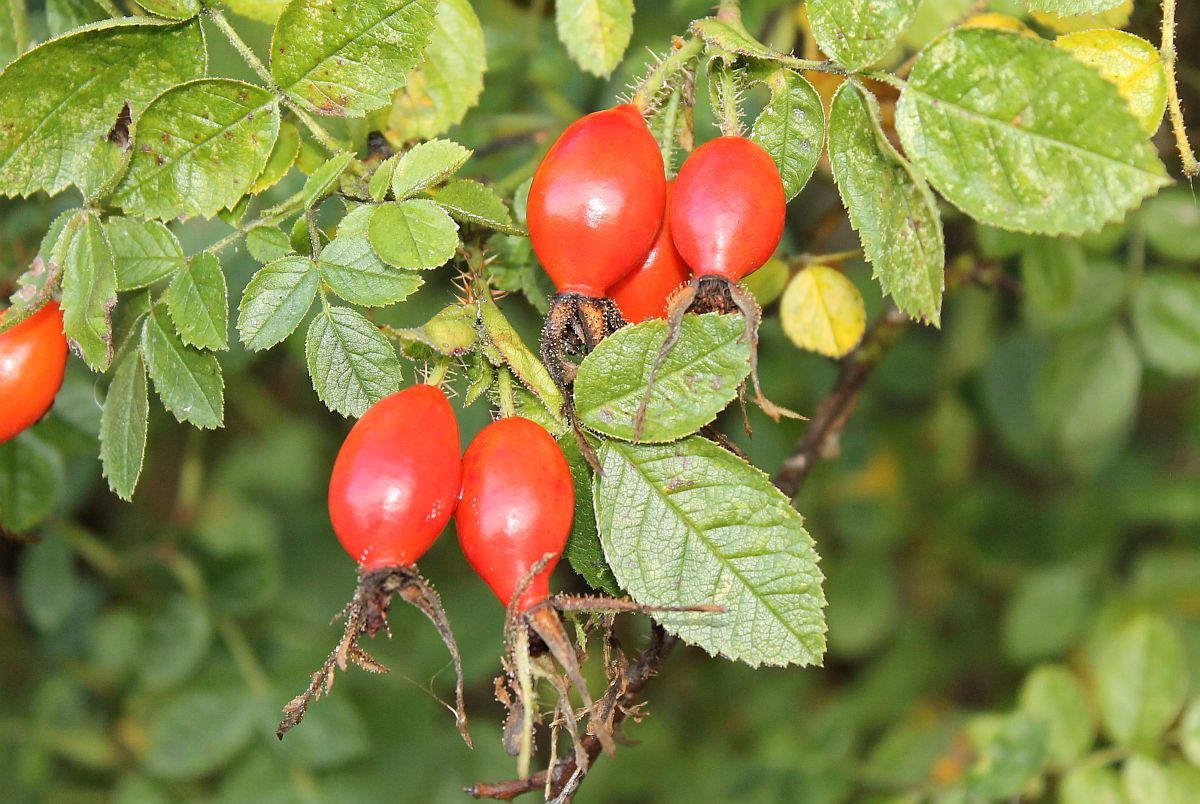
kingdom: Plantae
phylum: Tracheophyta
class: Magnoliopsida
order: Rosales
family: Rosaceae
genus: Rosa
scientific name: Rosa rubiginosa
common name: Sweet-briar
